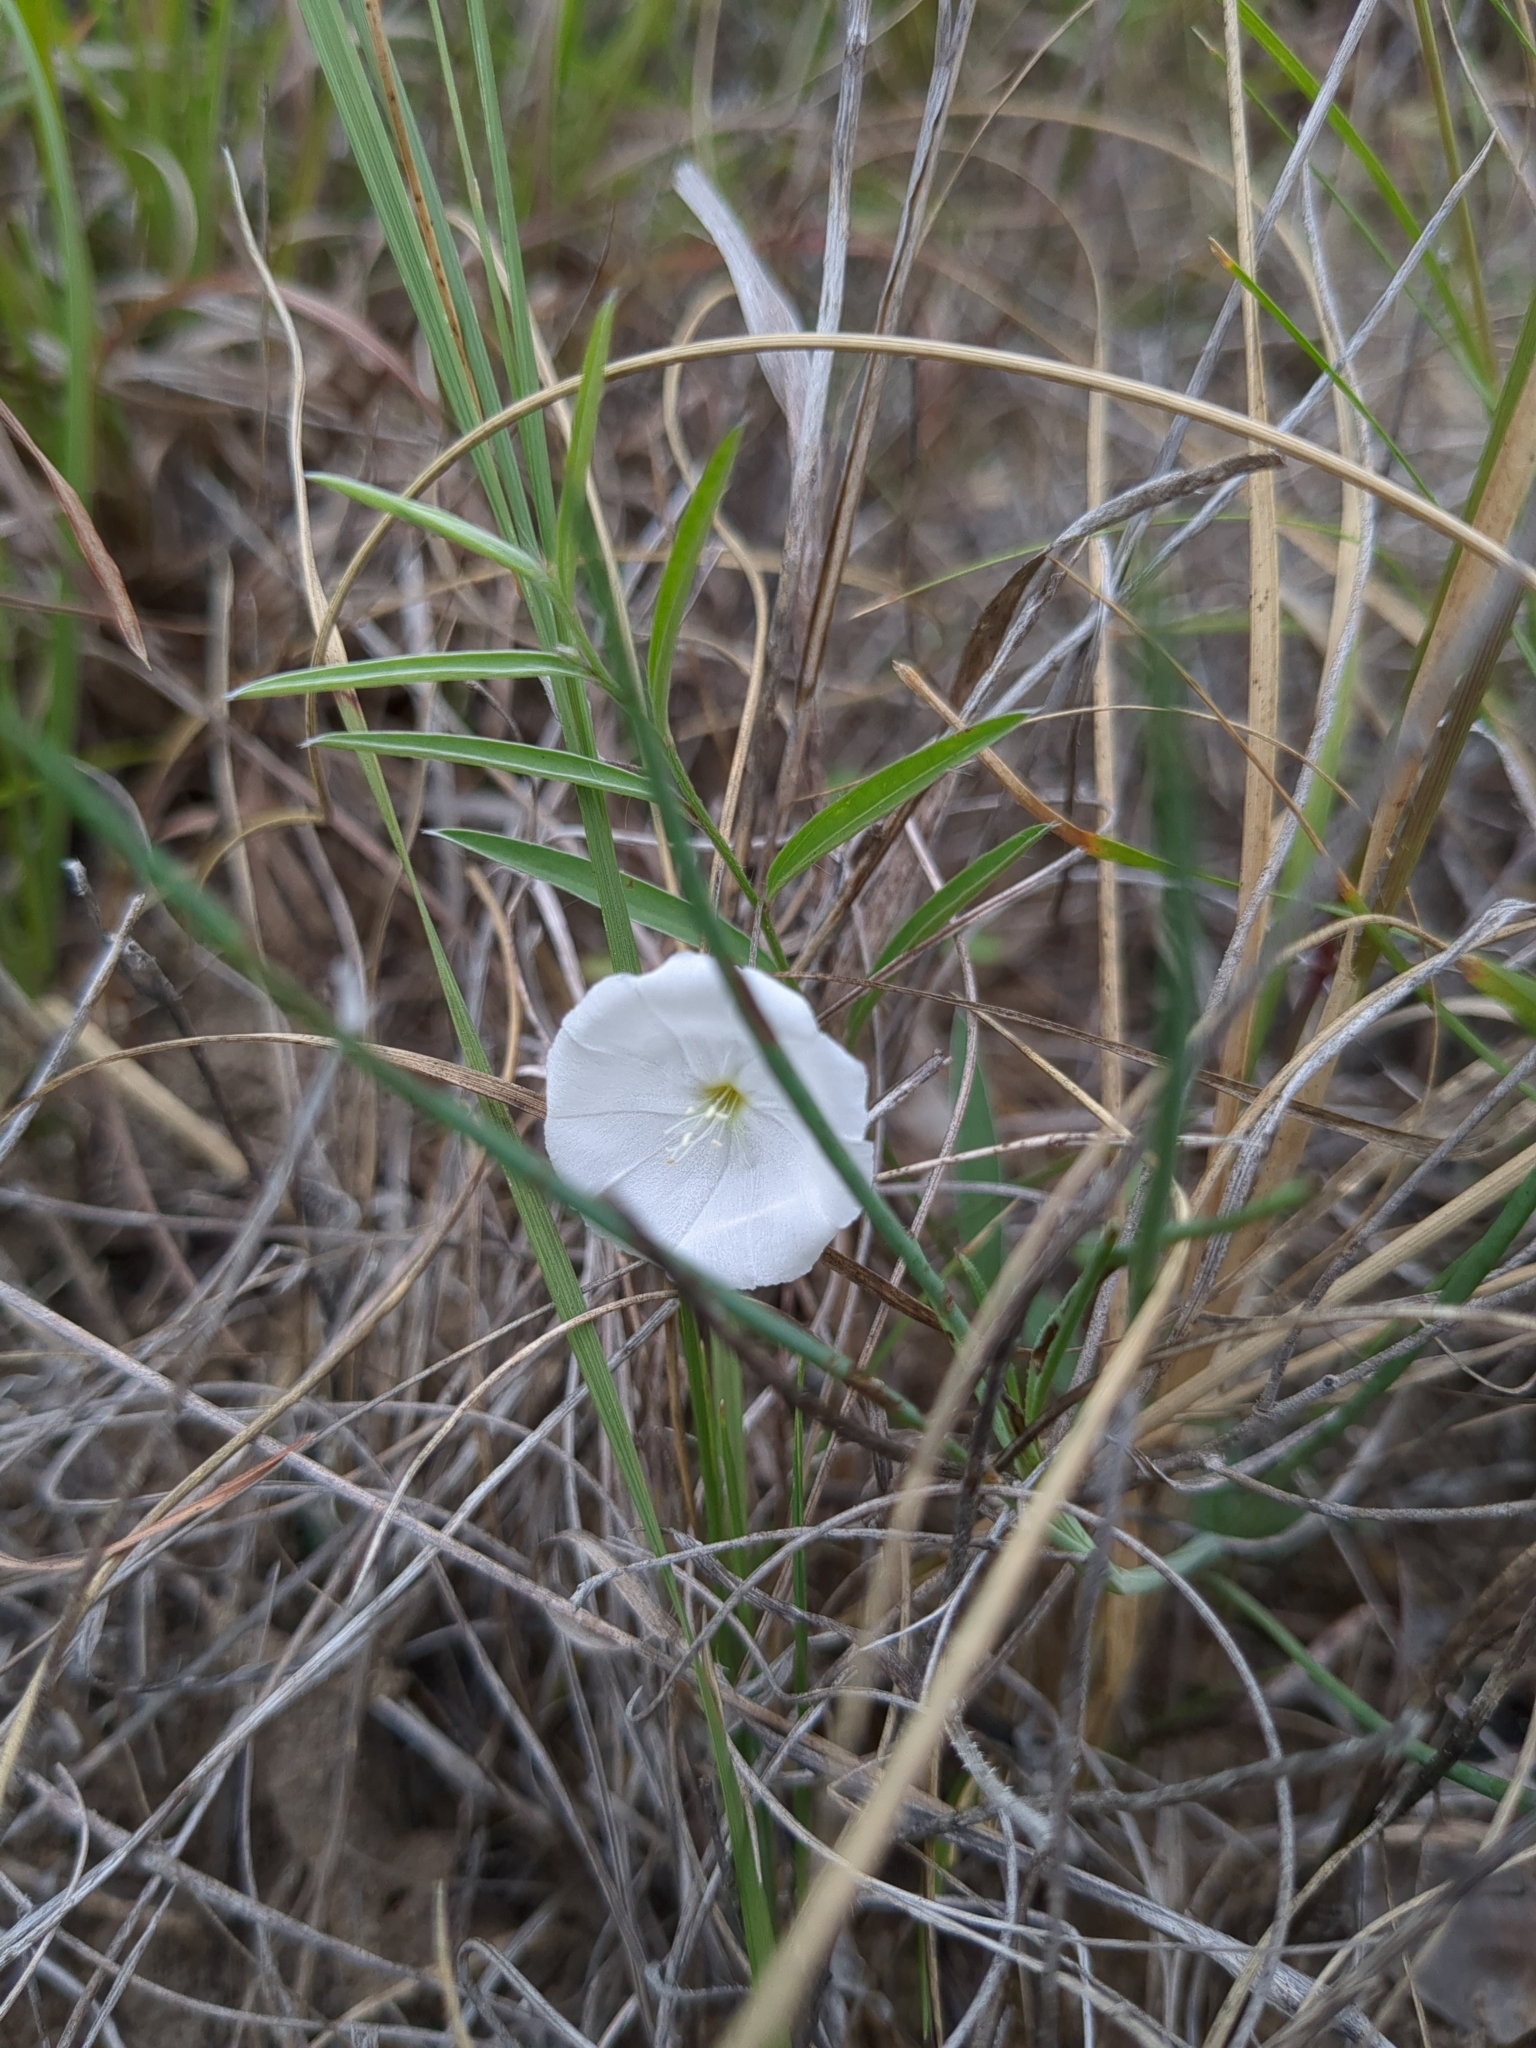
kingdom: Plantae
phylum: Tracheophyta
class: Magnoliopsida
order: Solanales
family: Convolvulaceae
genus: Evolvulus
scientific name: Evolvulus sericeus
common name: Blue dots
